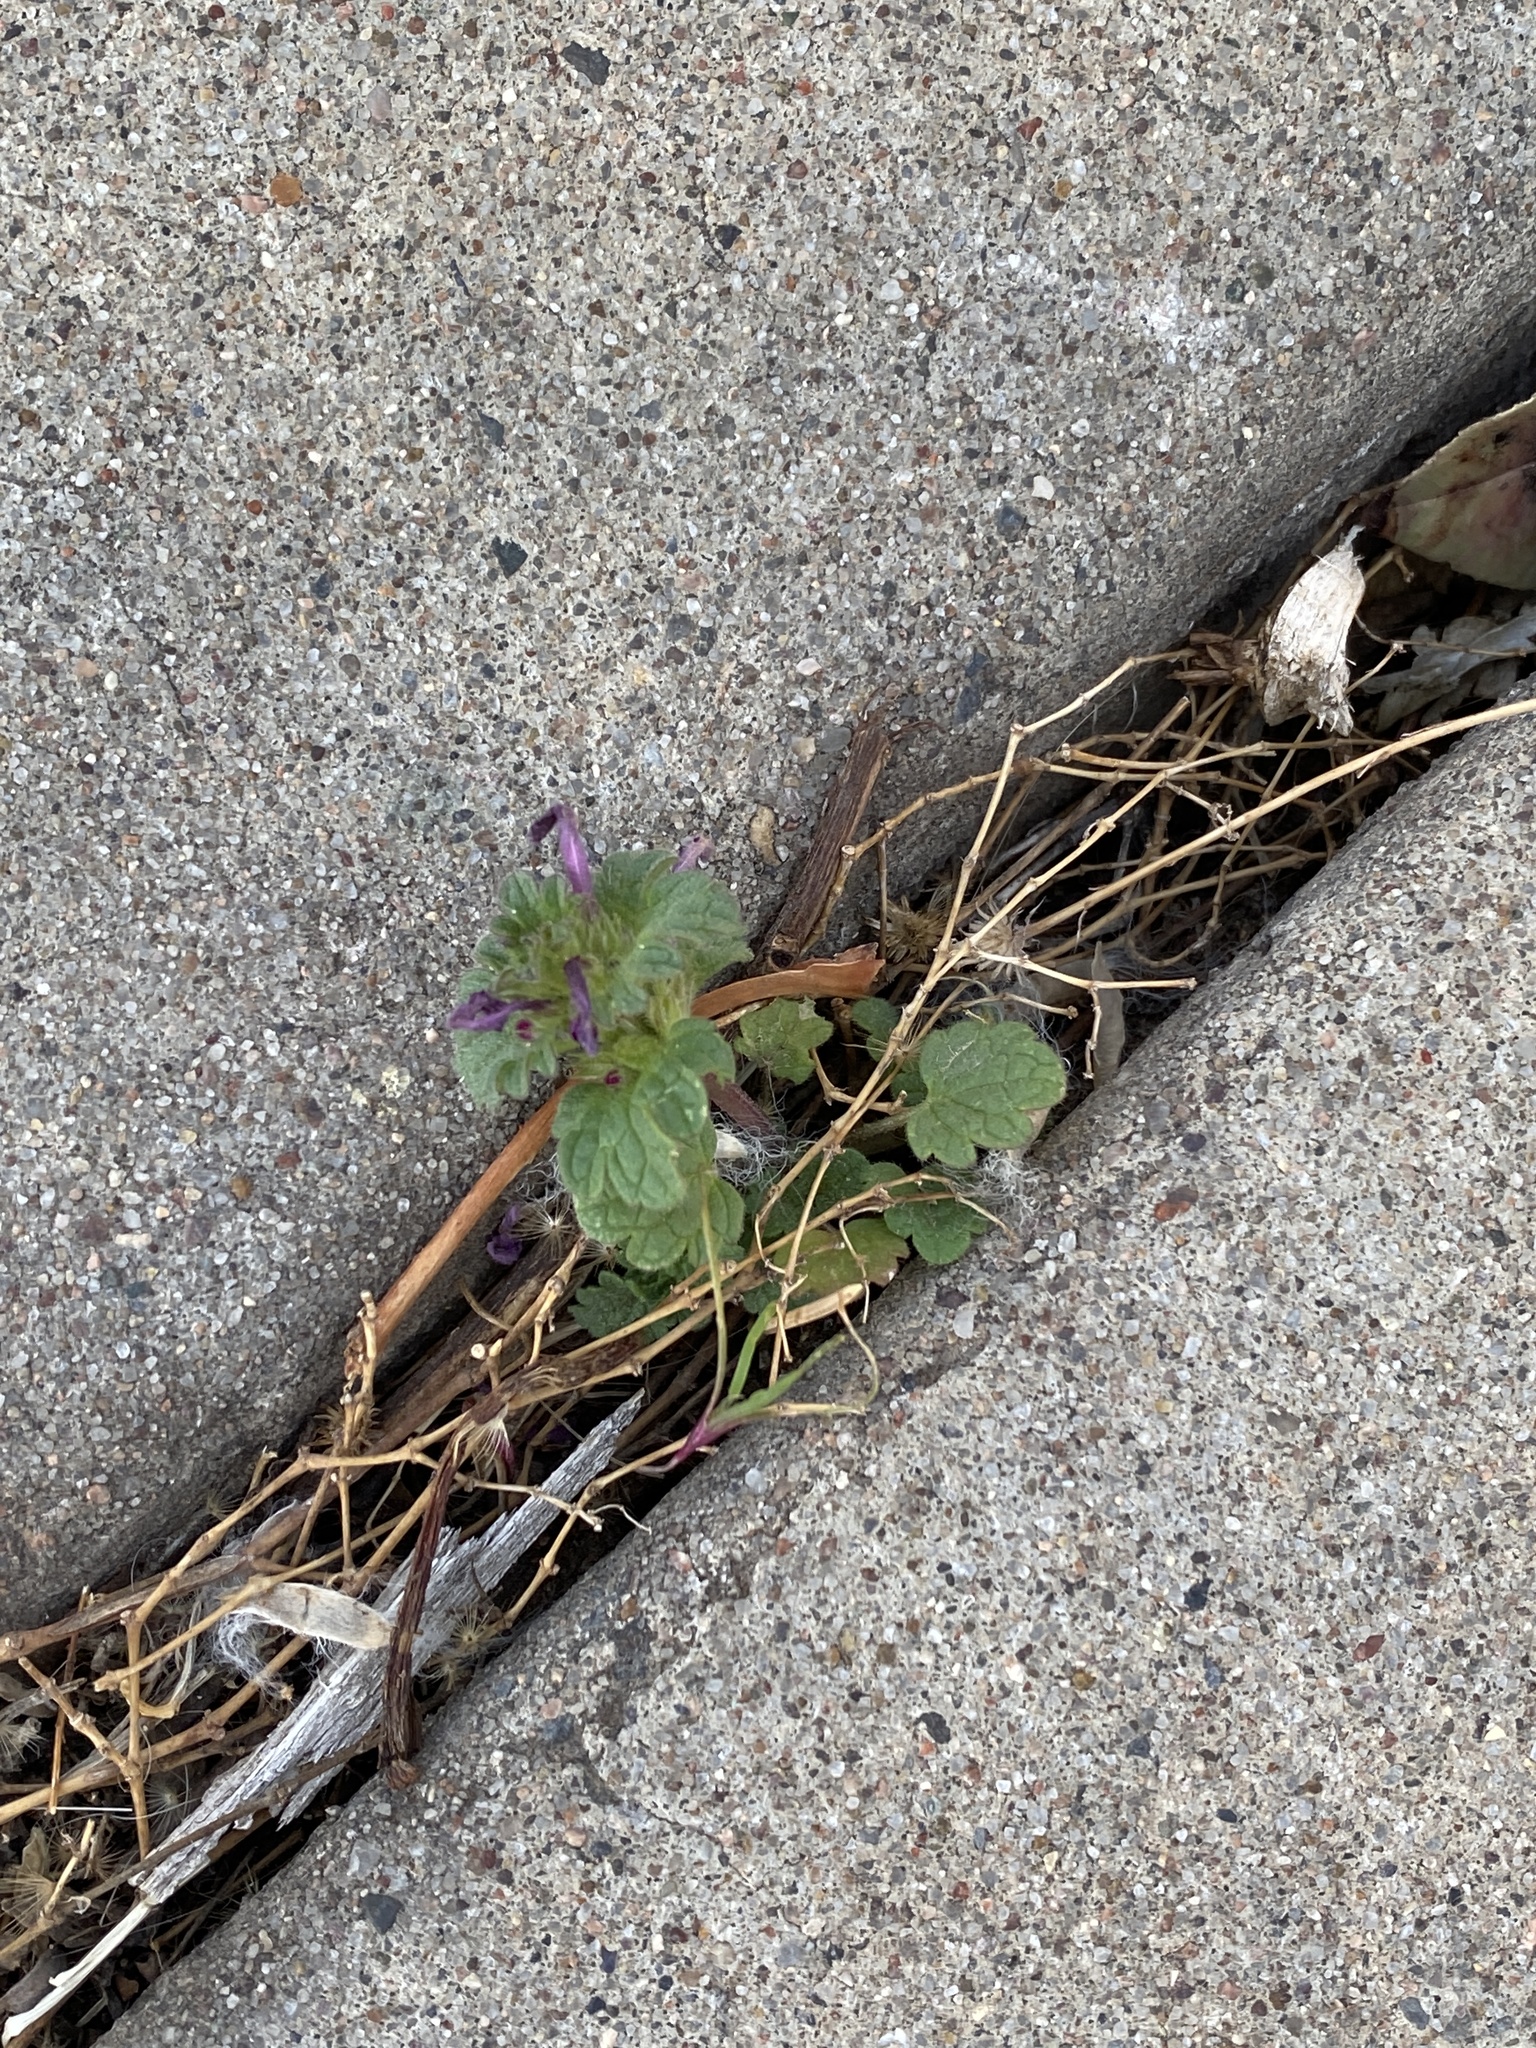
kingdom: Plantae
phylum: Tracheophyta
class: Magnoliopsida
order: Lamiales
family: Lamiaceae
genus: Lamium
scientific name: Lamium amplexicaule
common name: Henbit dead-nettle
